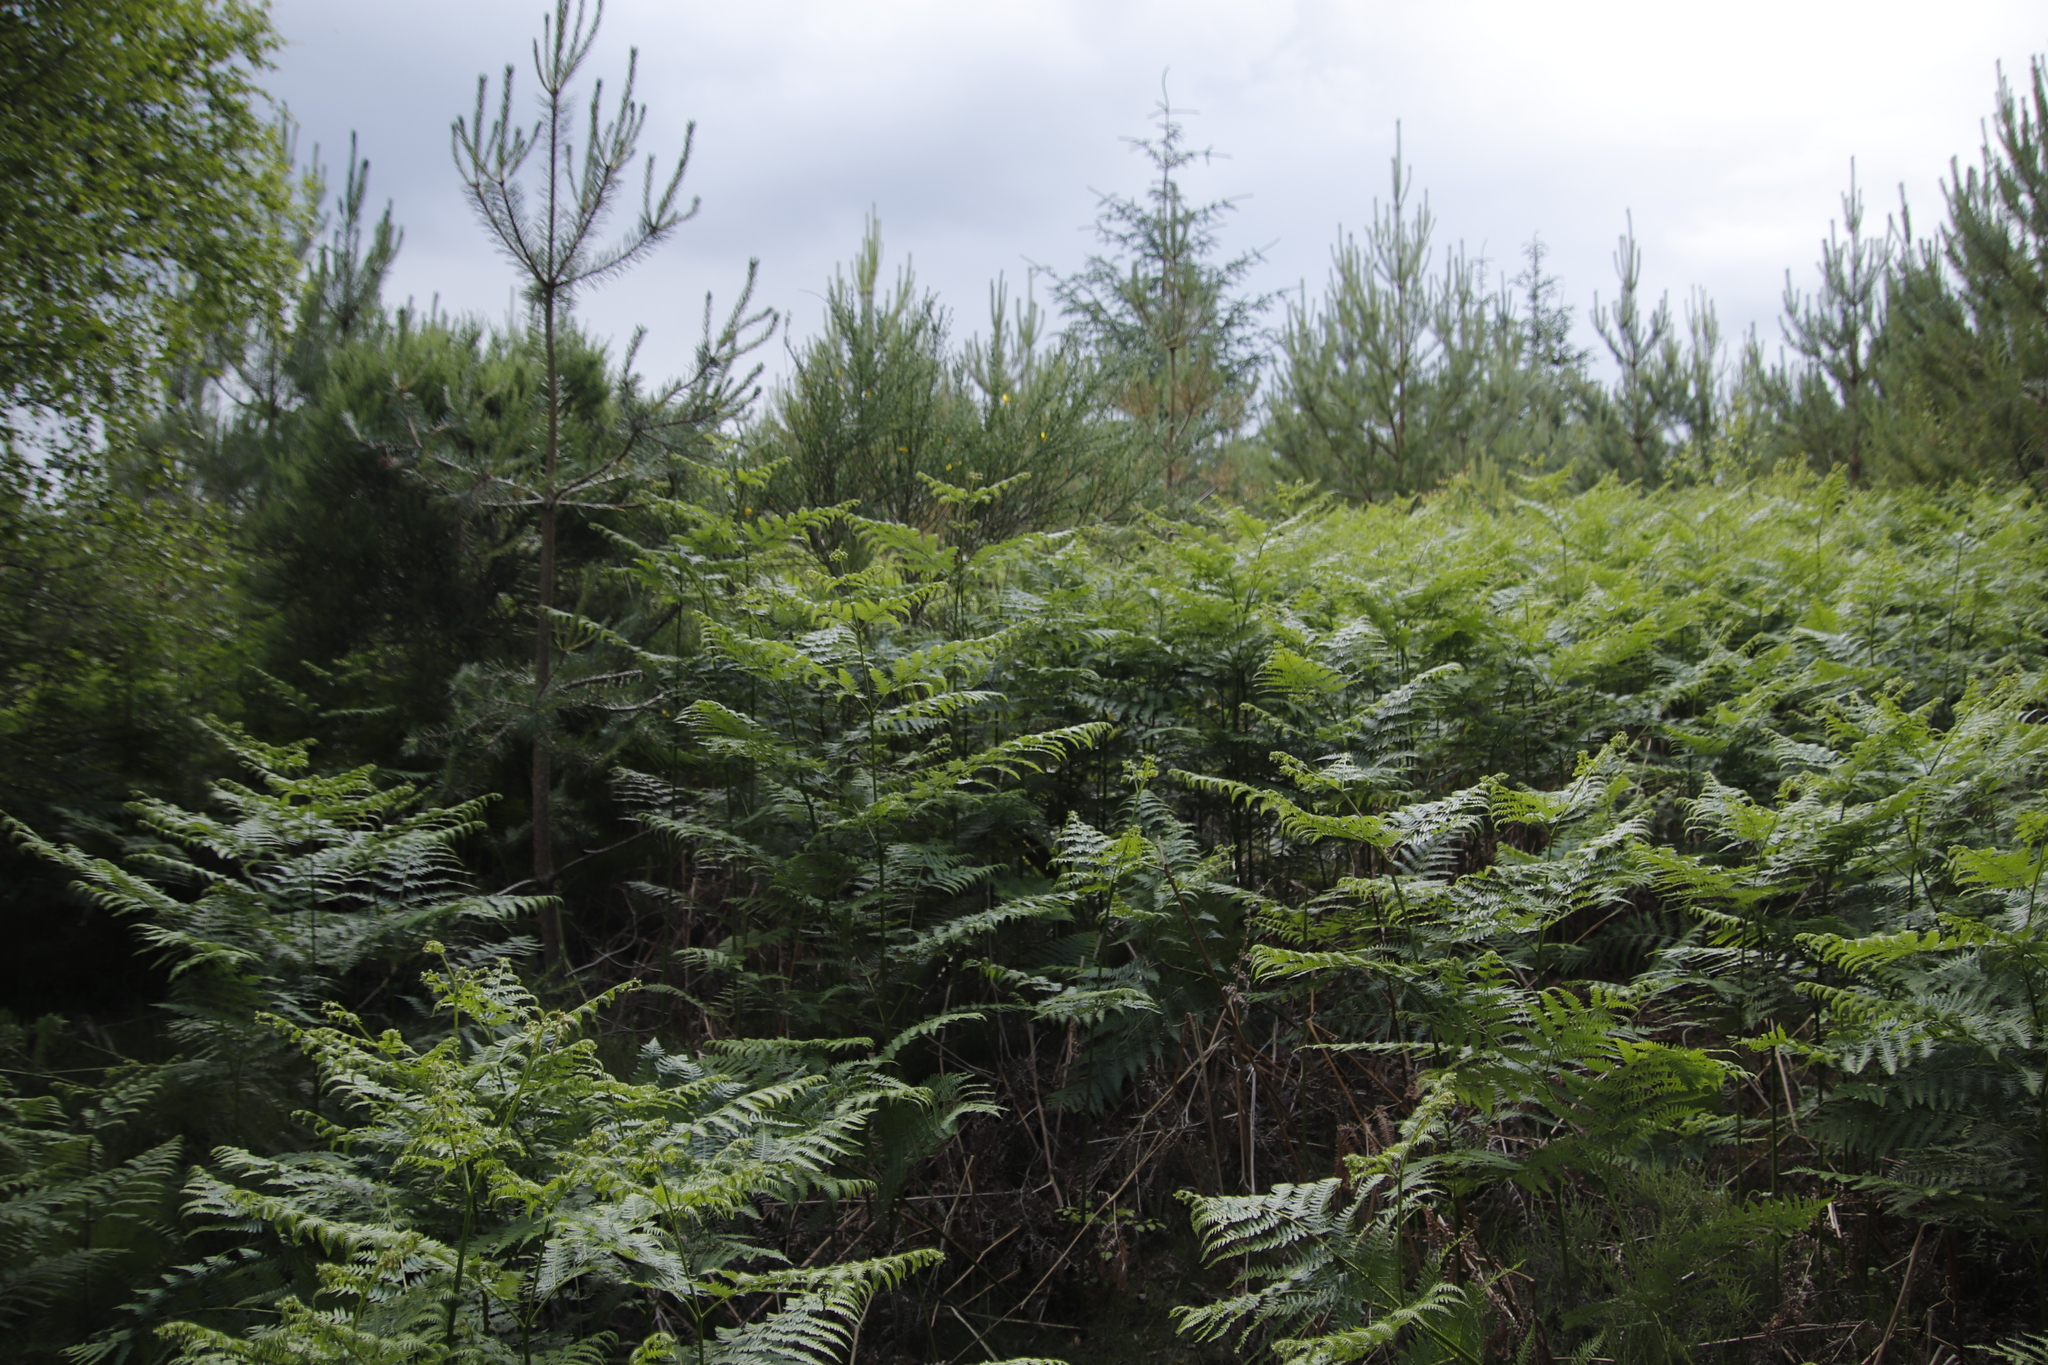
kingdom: Plantae
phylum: Tracheophyta
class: Polypodiopsida
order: Polypodiales
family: Dennstaedtiaceae
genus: Pteridium
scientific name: Pteridium aquilinum
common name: Bracken
